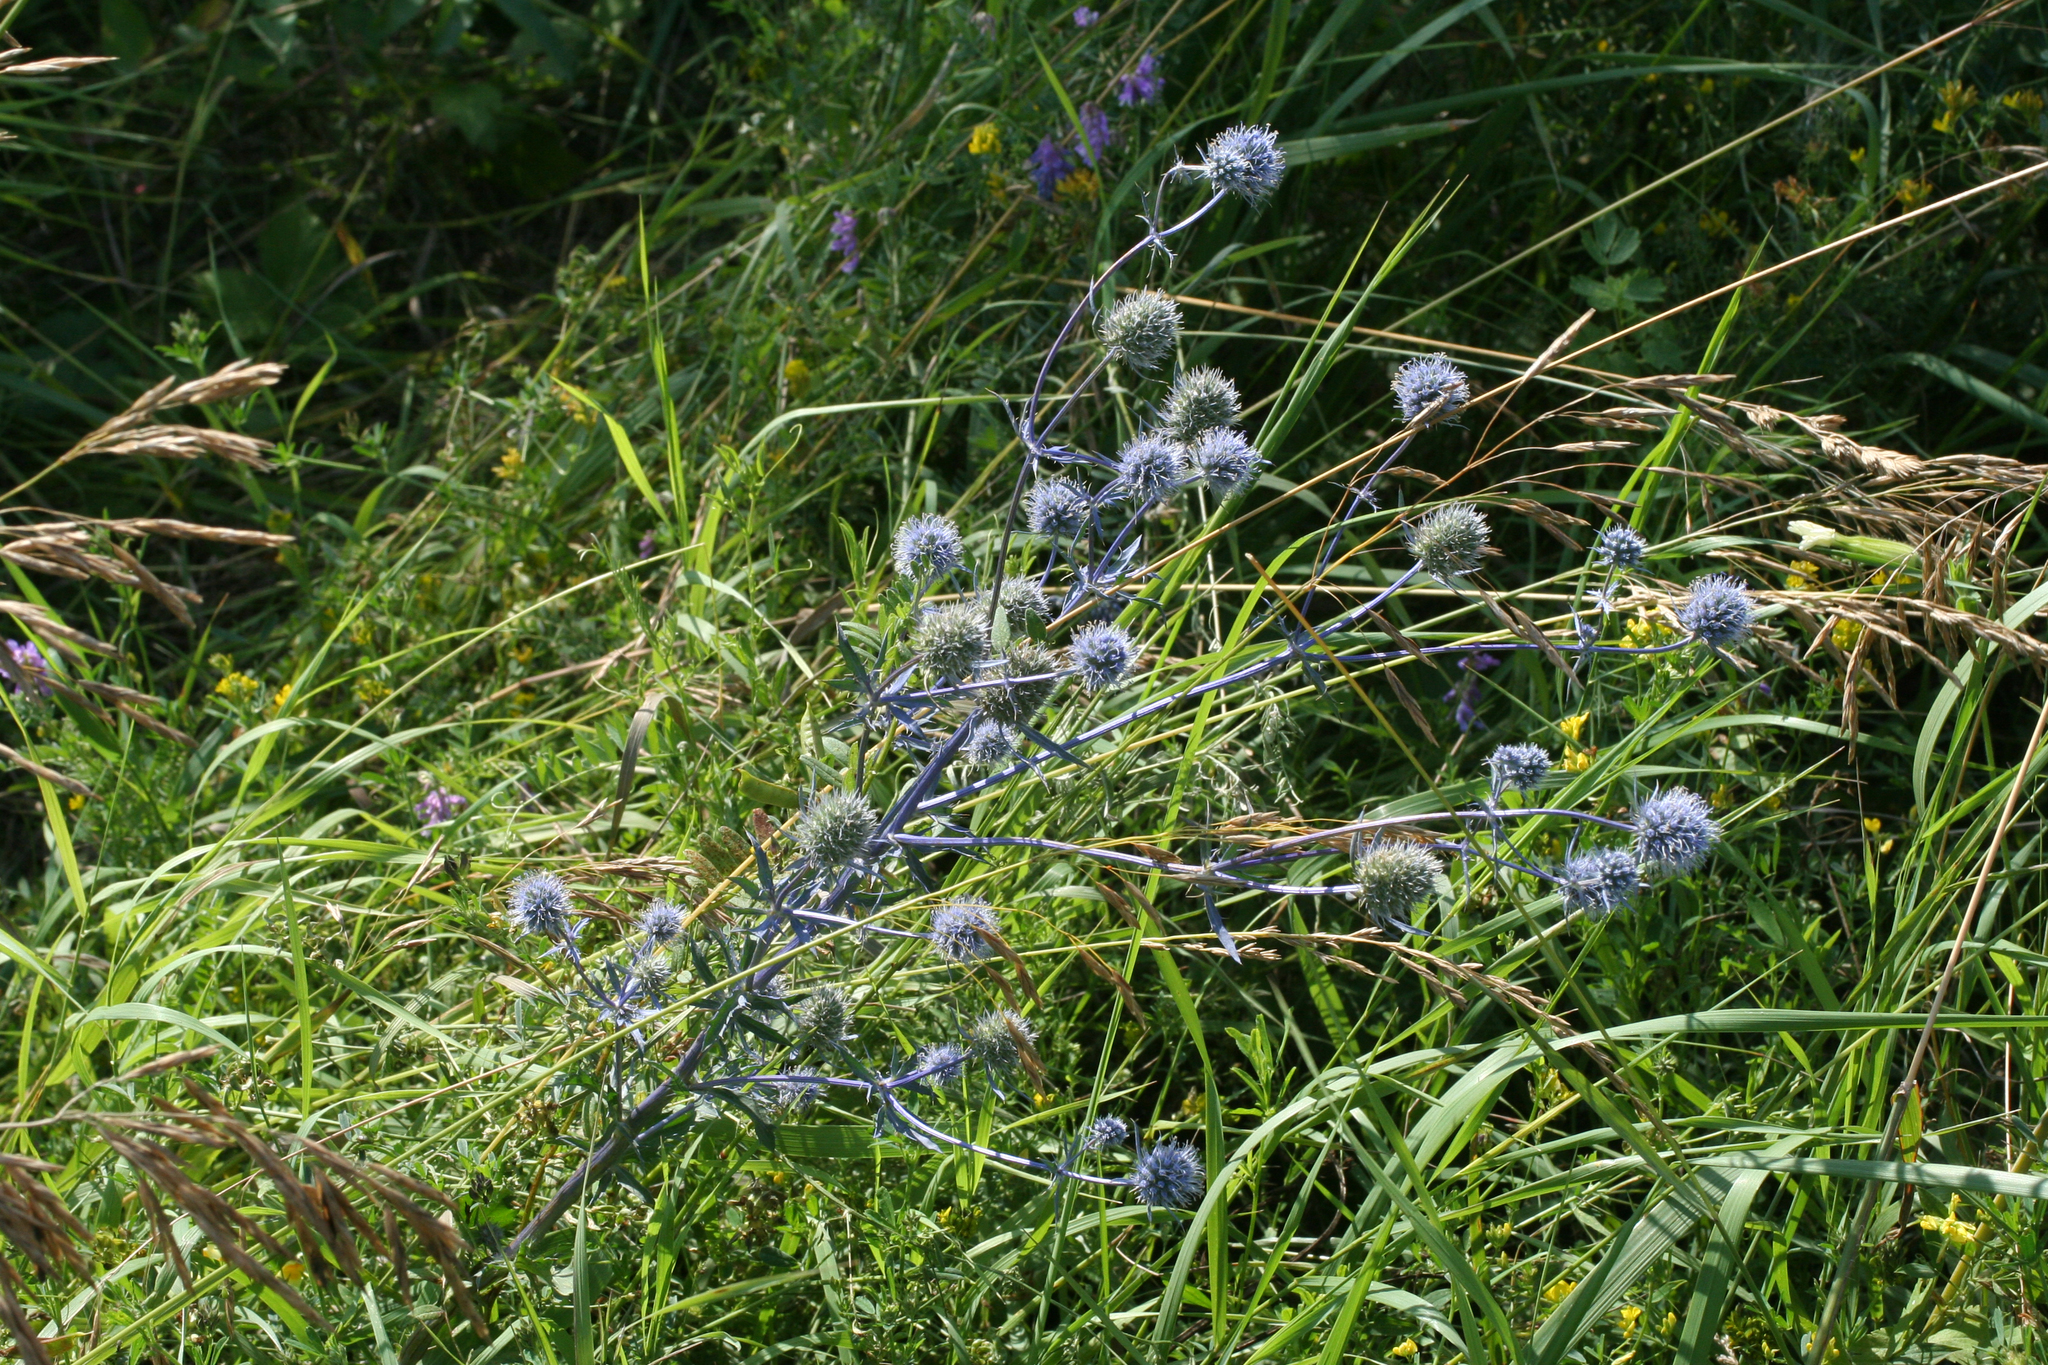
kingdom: Plantae
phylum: Tracheophyta
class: Magnoliopsida
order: Apiales
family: Apiaceae
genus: Eryngium
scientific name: Eryngium planum
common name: Blue eryngo
